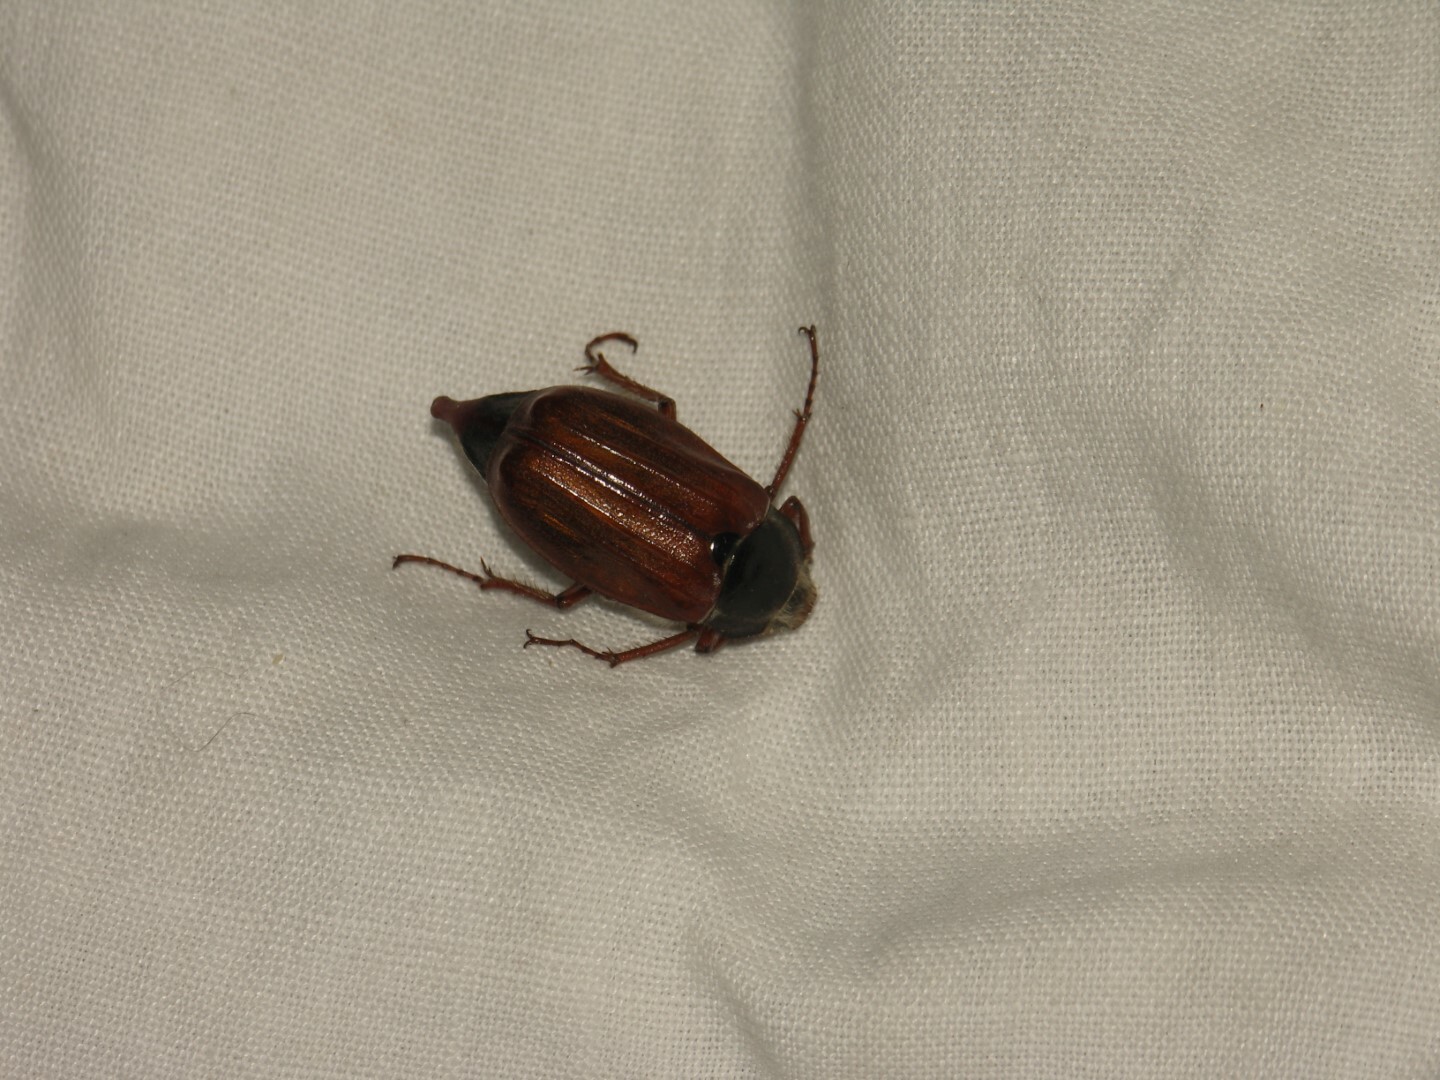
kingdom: Animalia
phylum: Arthropoda
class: Insecta
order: Coleoptera
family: Scarabaeidae
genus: Melolontha
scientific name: Melolontha melolontha
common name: Cockchafer maybeetle
